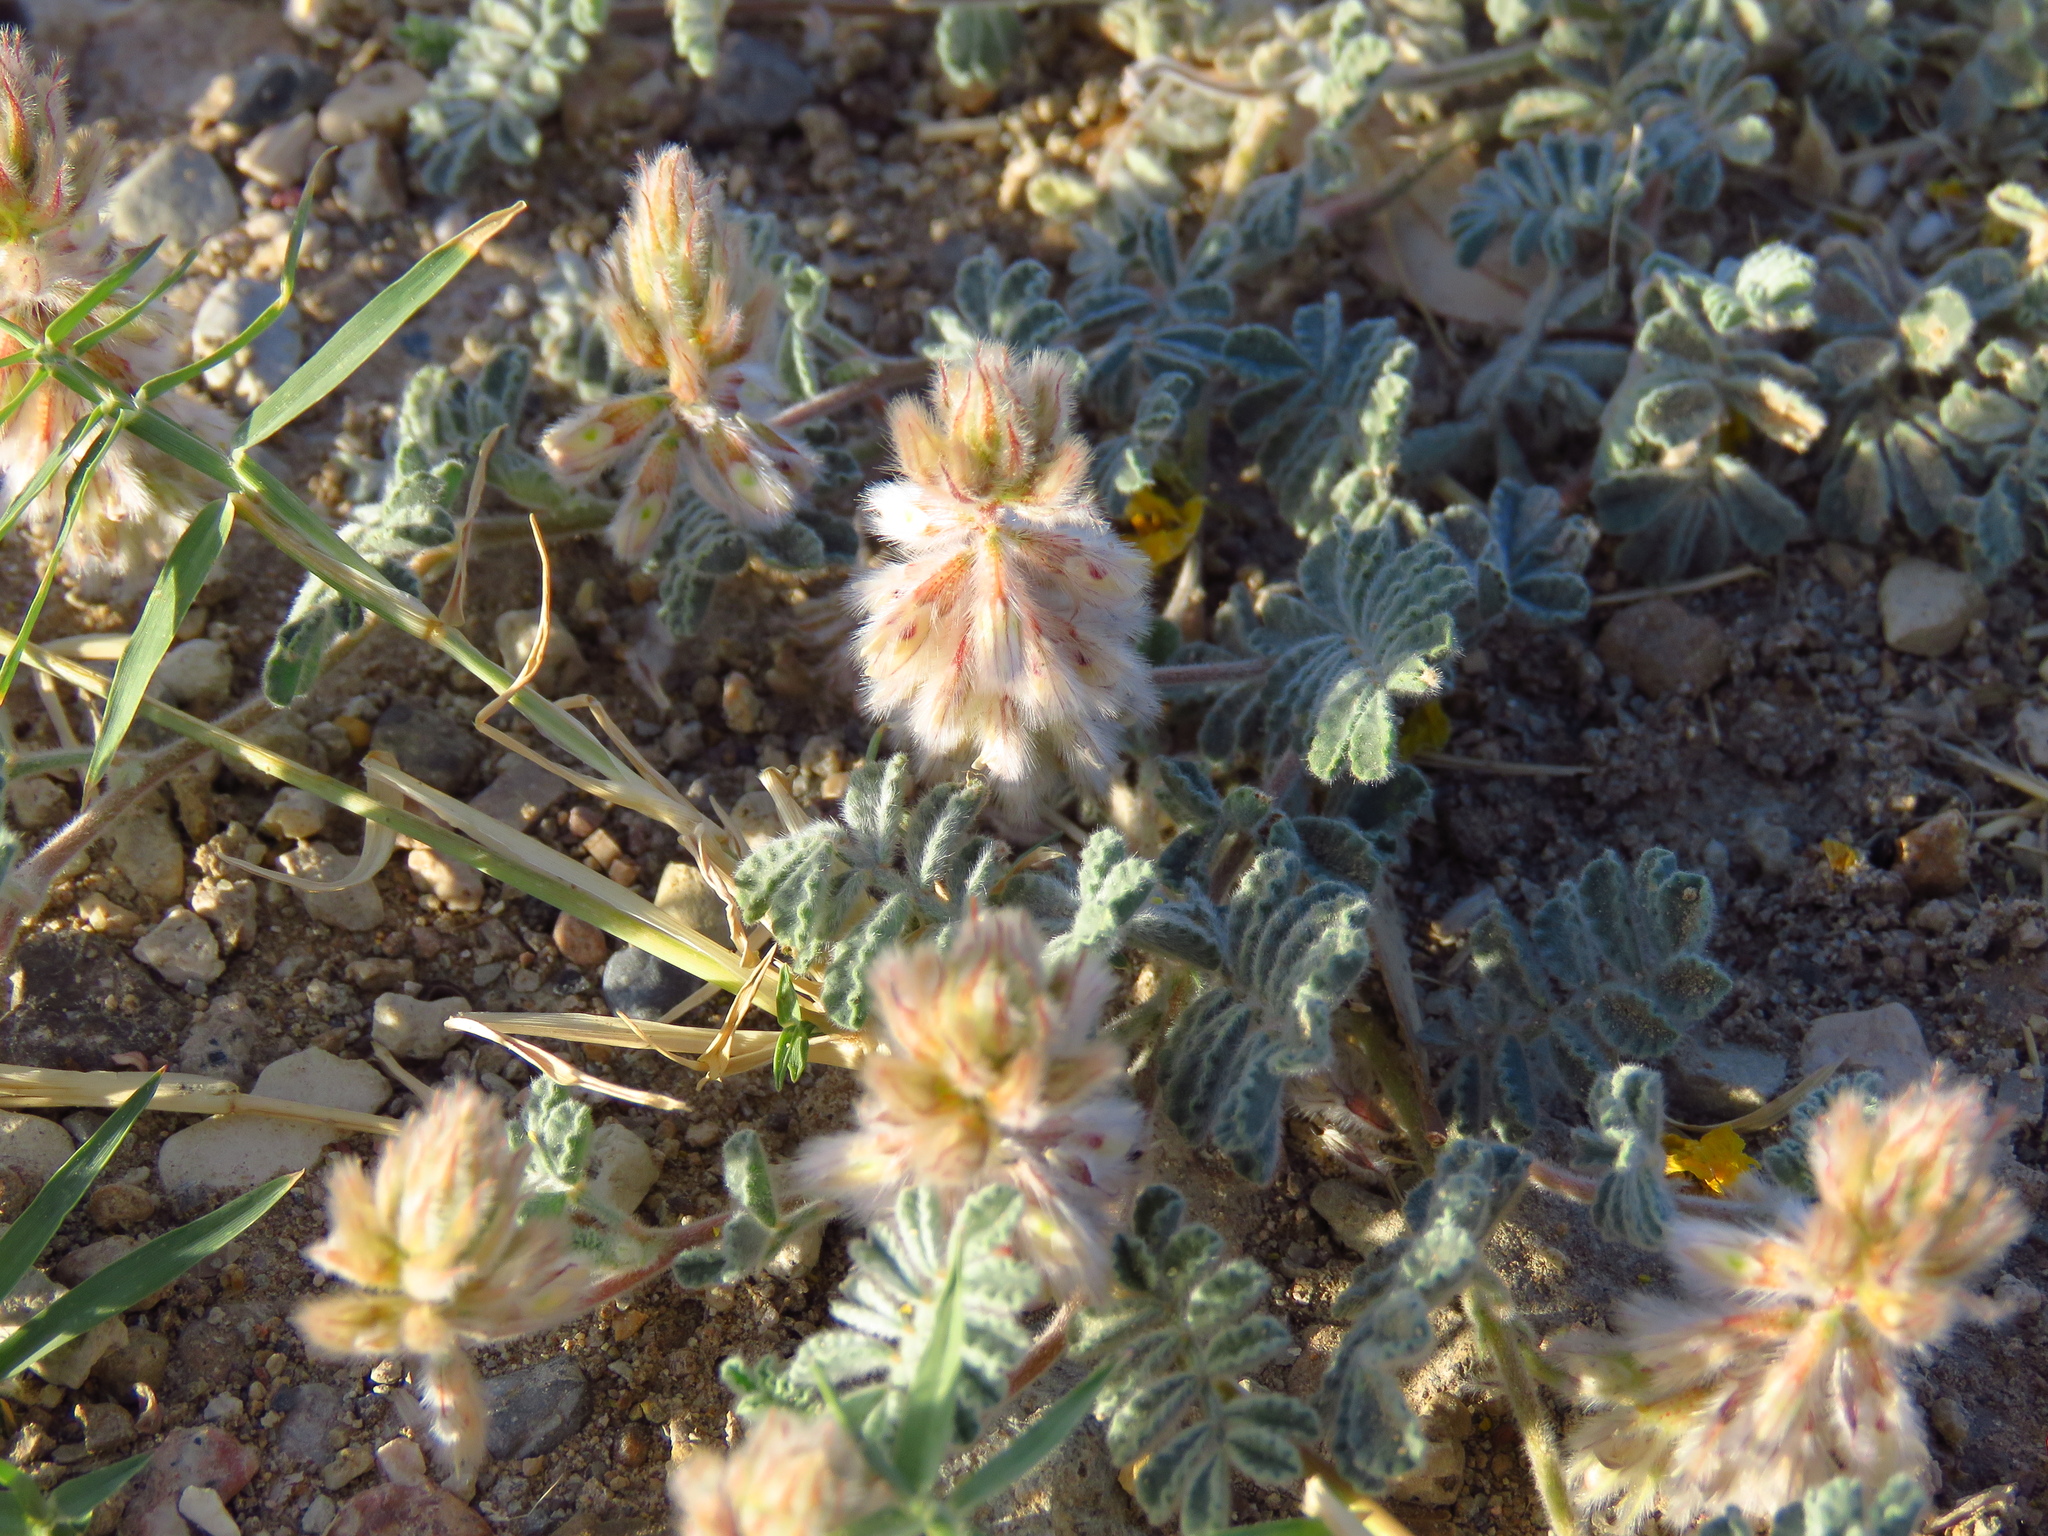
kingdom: Plantae
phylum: Tracheophyta
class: Magnoliopsida
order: Fabales
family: Fabaceae
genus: Dalea
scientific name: Dalea neomexicana
